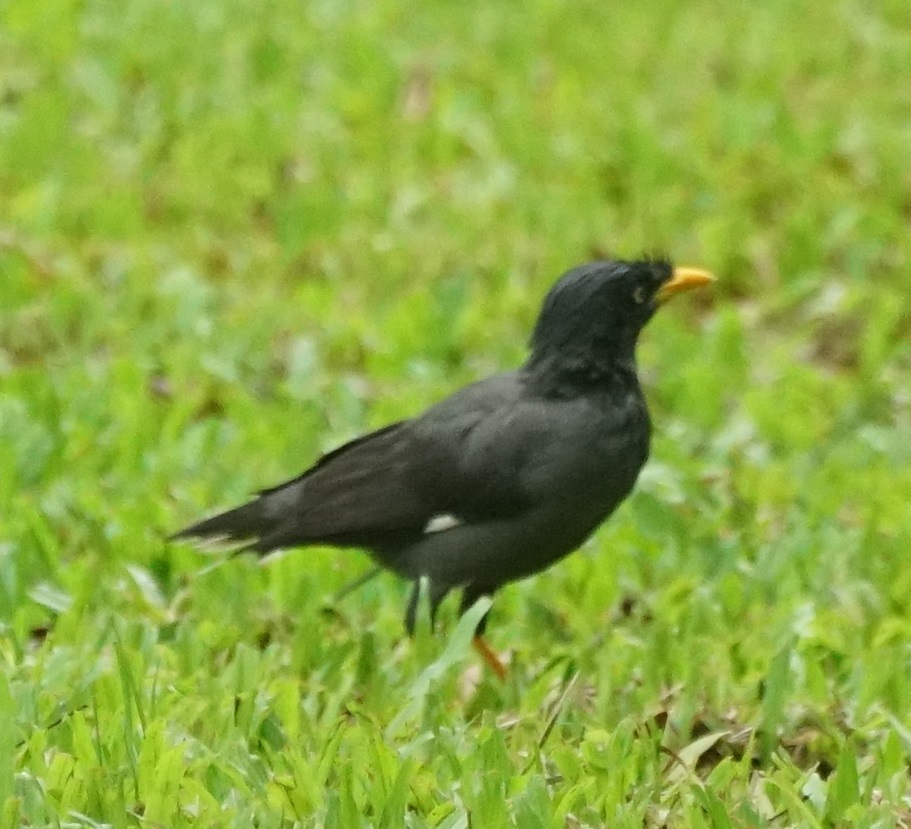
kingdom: Animalia
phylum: Chordata
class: Aves
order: Passeriformes
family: Sturnidae
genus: Acridotheres
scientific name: Acridotheres javanicus
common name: Javan myna
